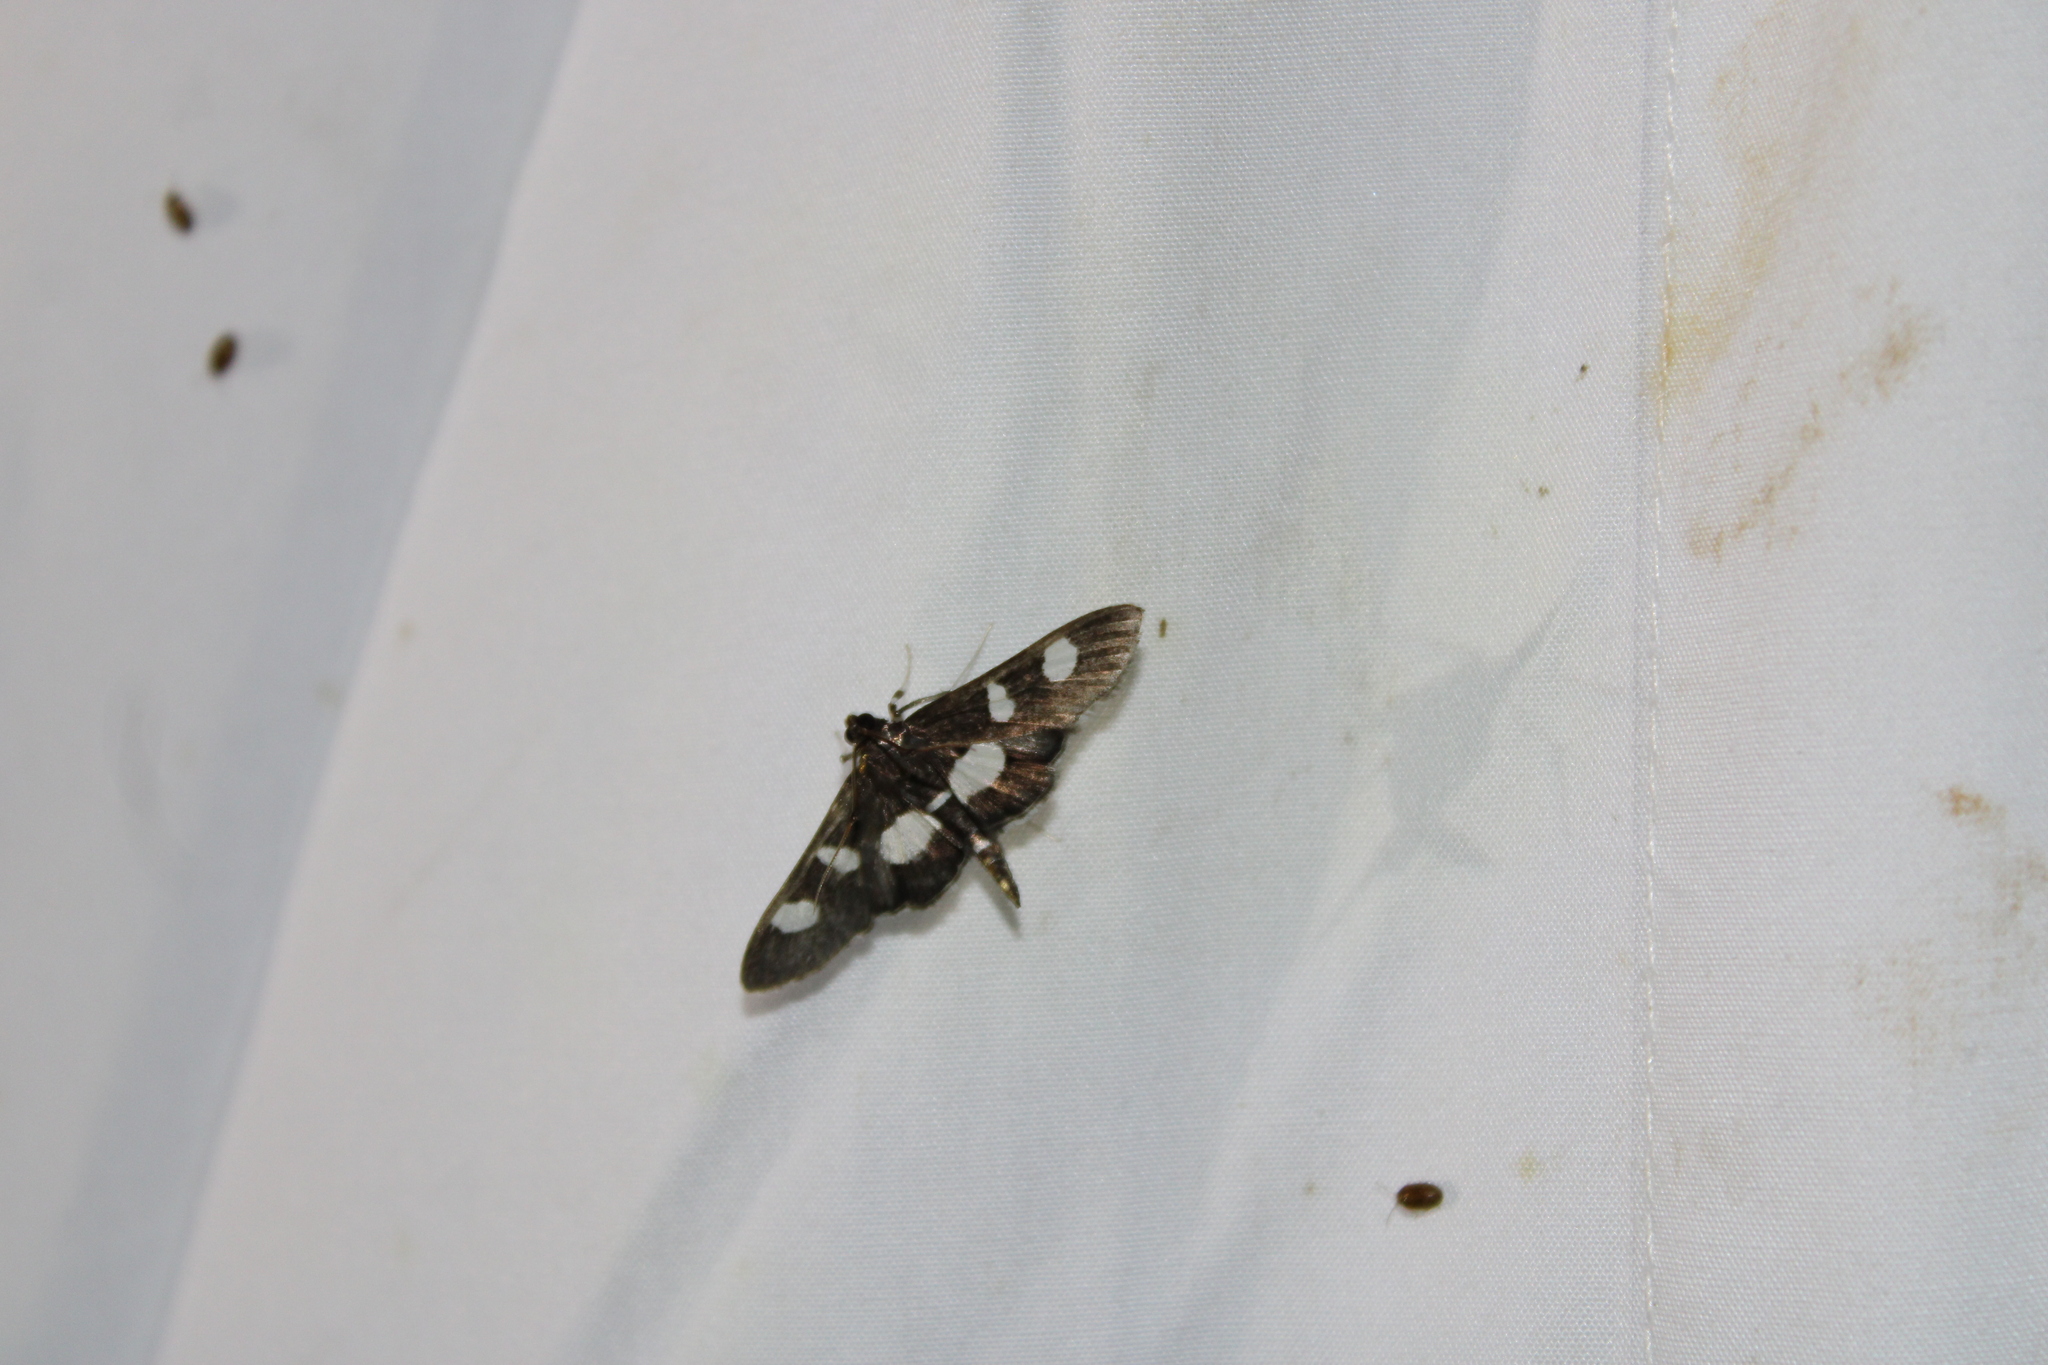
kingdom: Animalia
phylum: Arthropoda
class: Insecta
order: Lepidoptera
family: Crambidae
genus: Desmia
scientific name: Desmia
